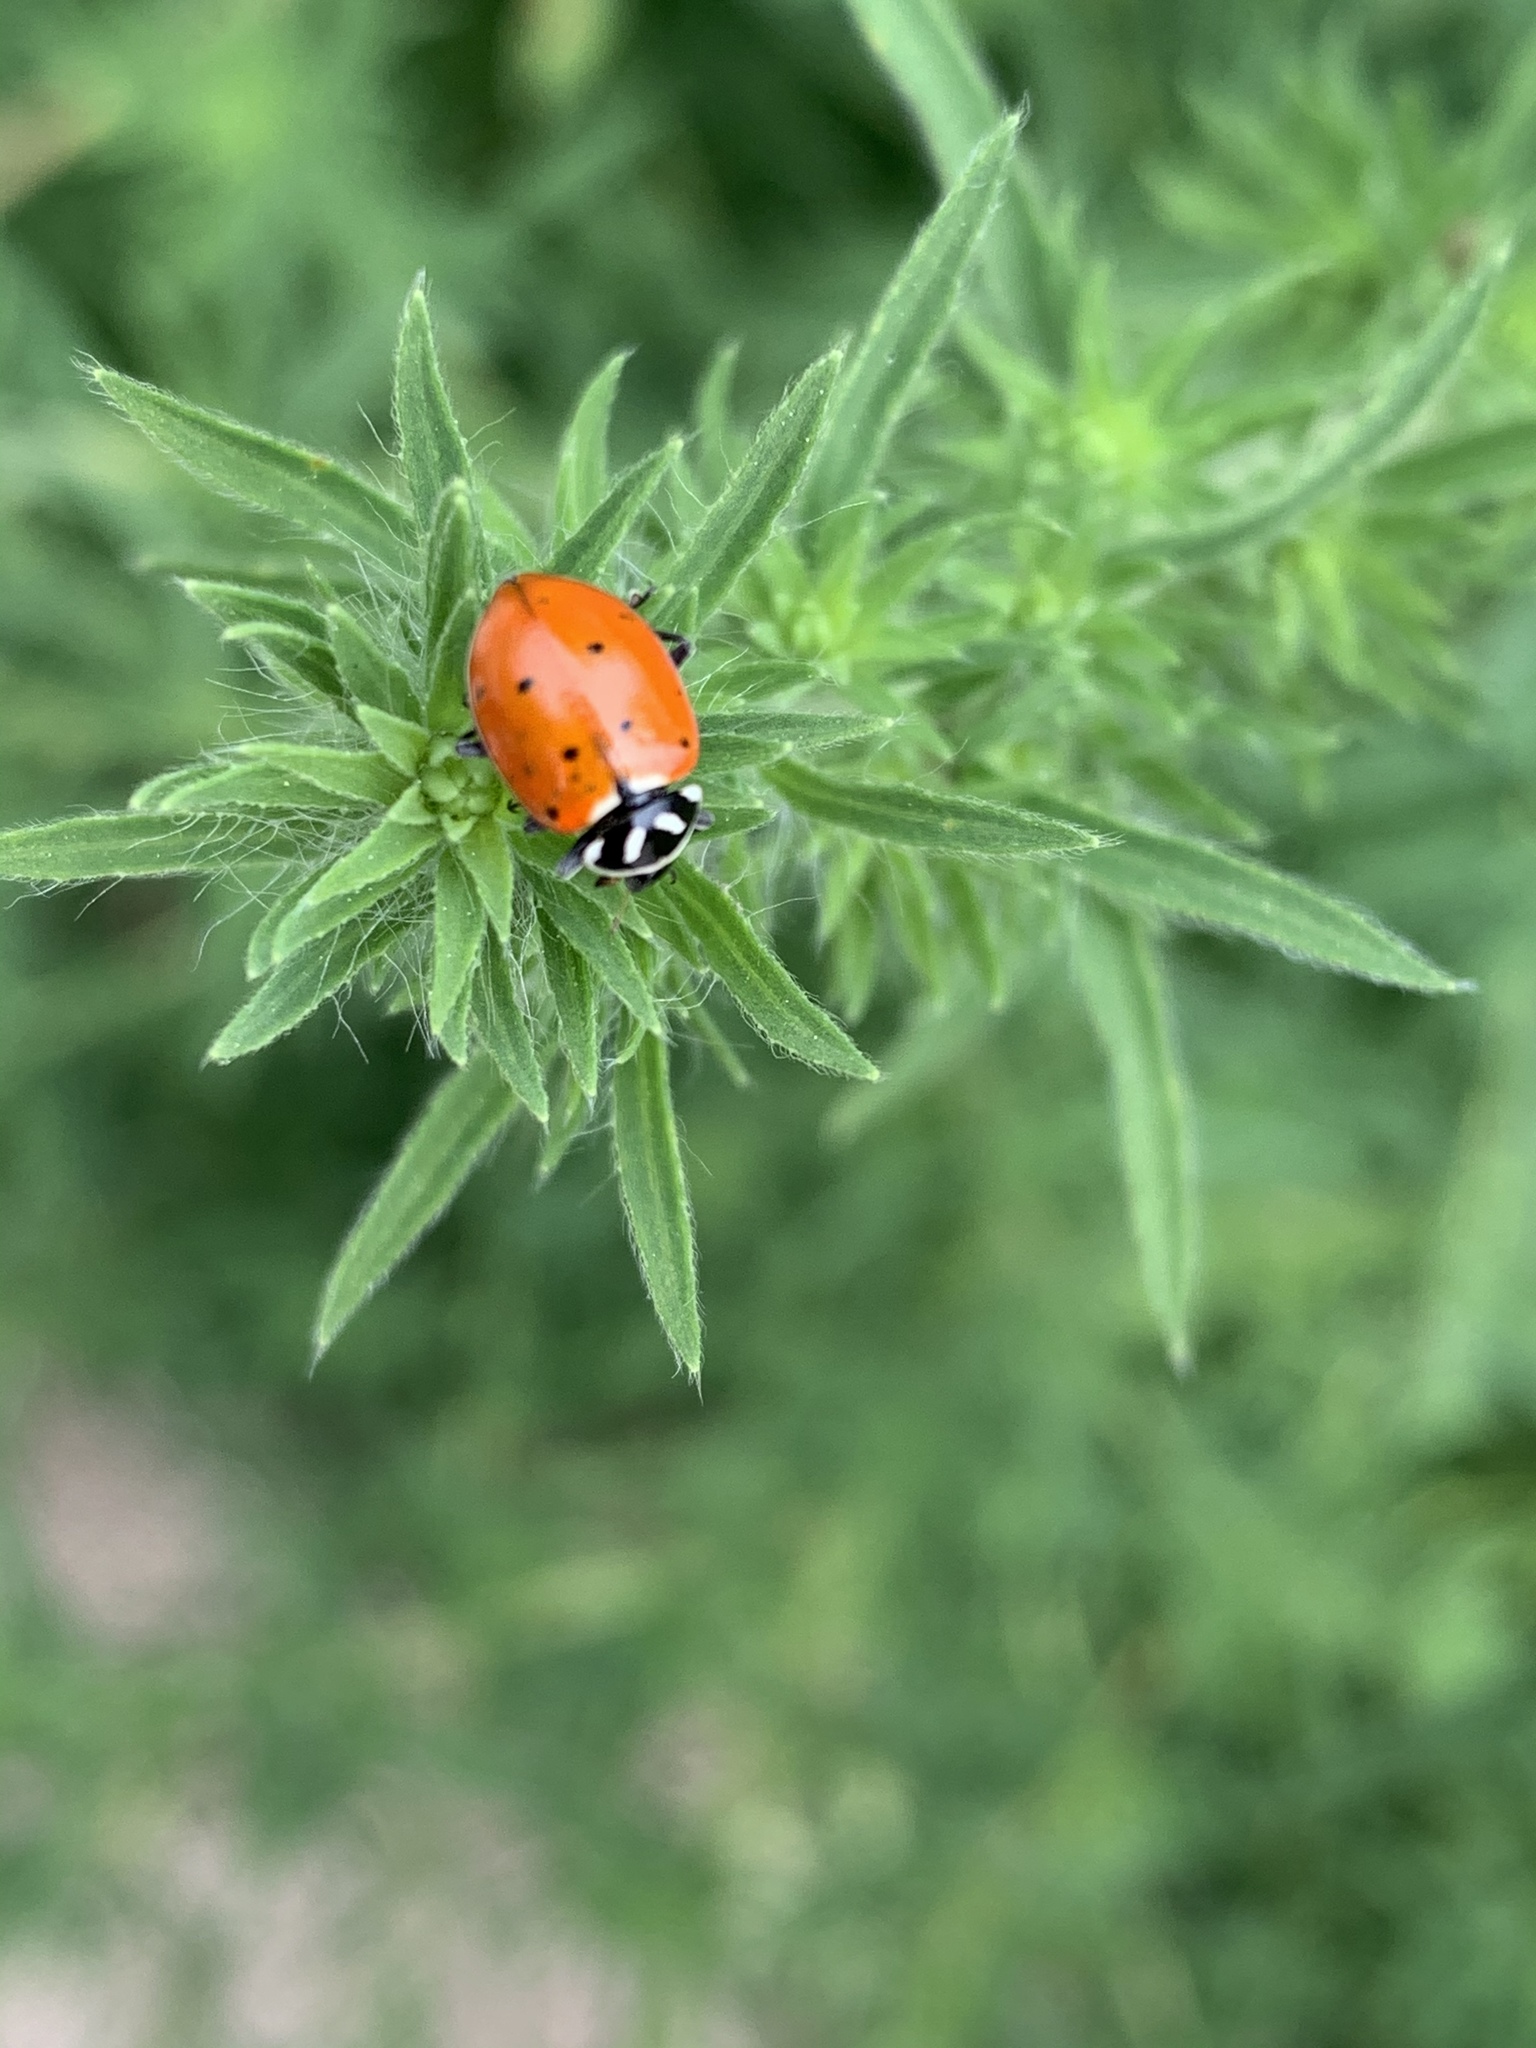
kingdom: Animalia
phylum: Arthropoda
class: Insecta
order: Coleoptera
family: Coccinellidae
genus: Hippodamia
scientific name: Hippodamia convergens
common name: Convergent lady beetle
